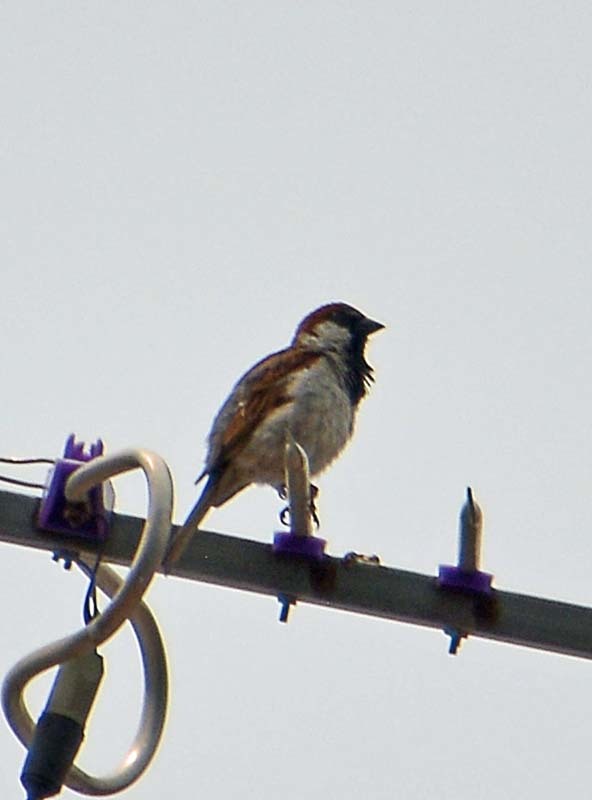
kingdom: Animalia
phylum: Chordata
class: Aves
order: Passeriformes
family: Passeridae
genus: Passer
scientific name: Passer domesticus
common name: House sparrow
